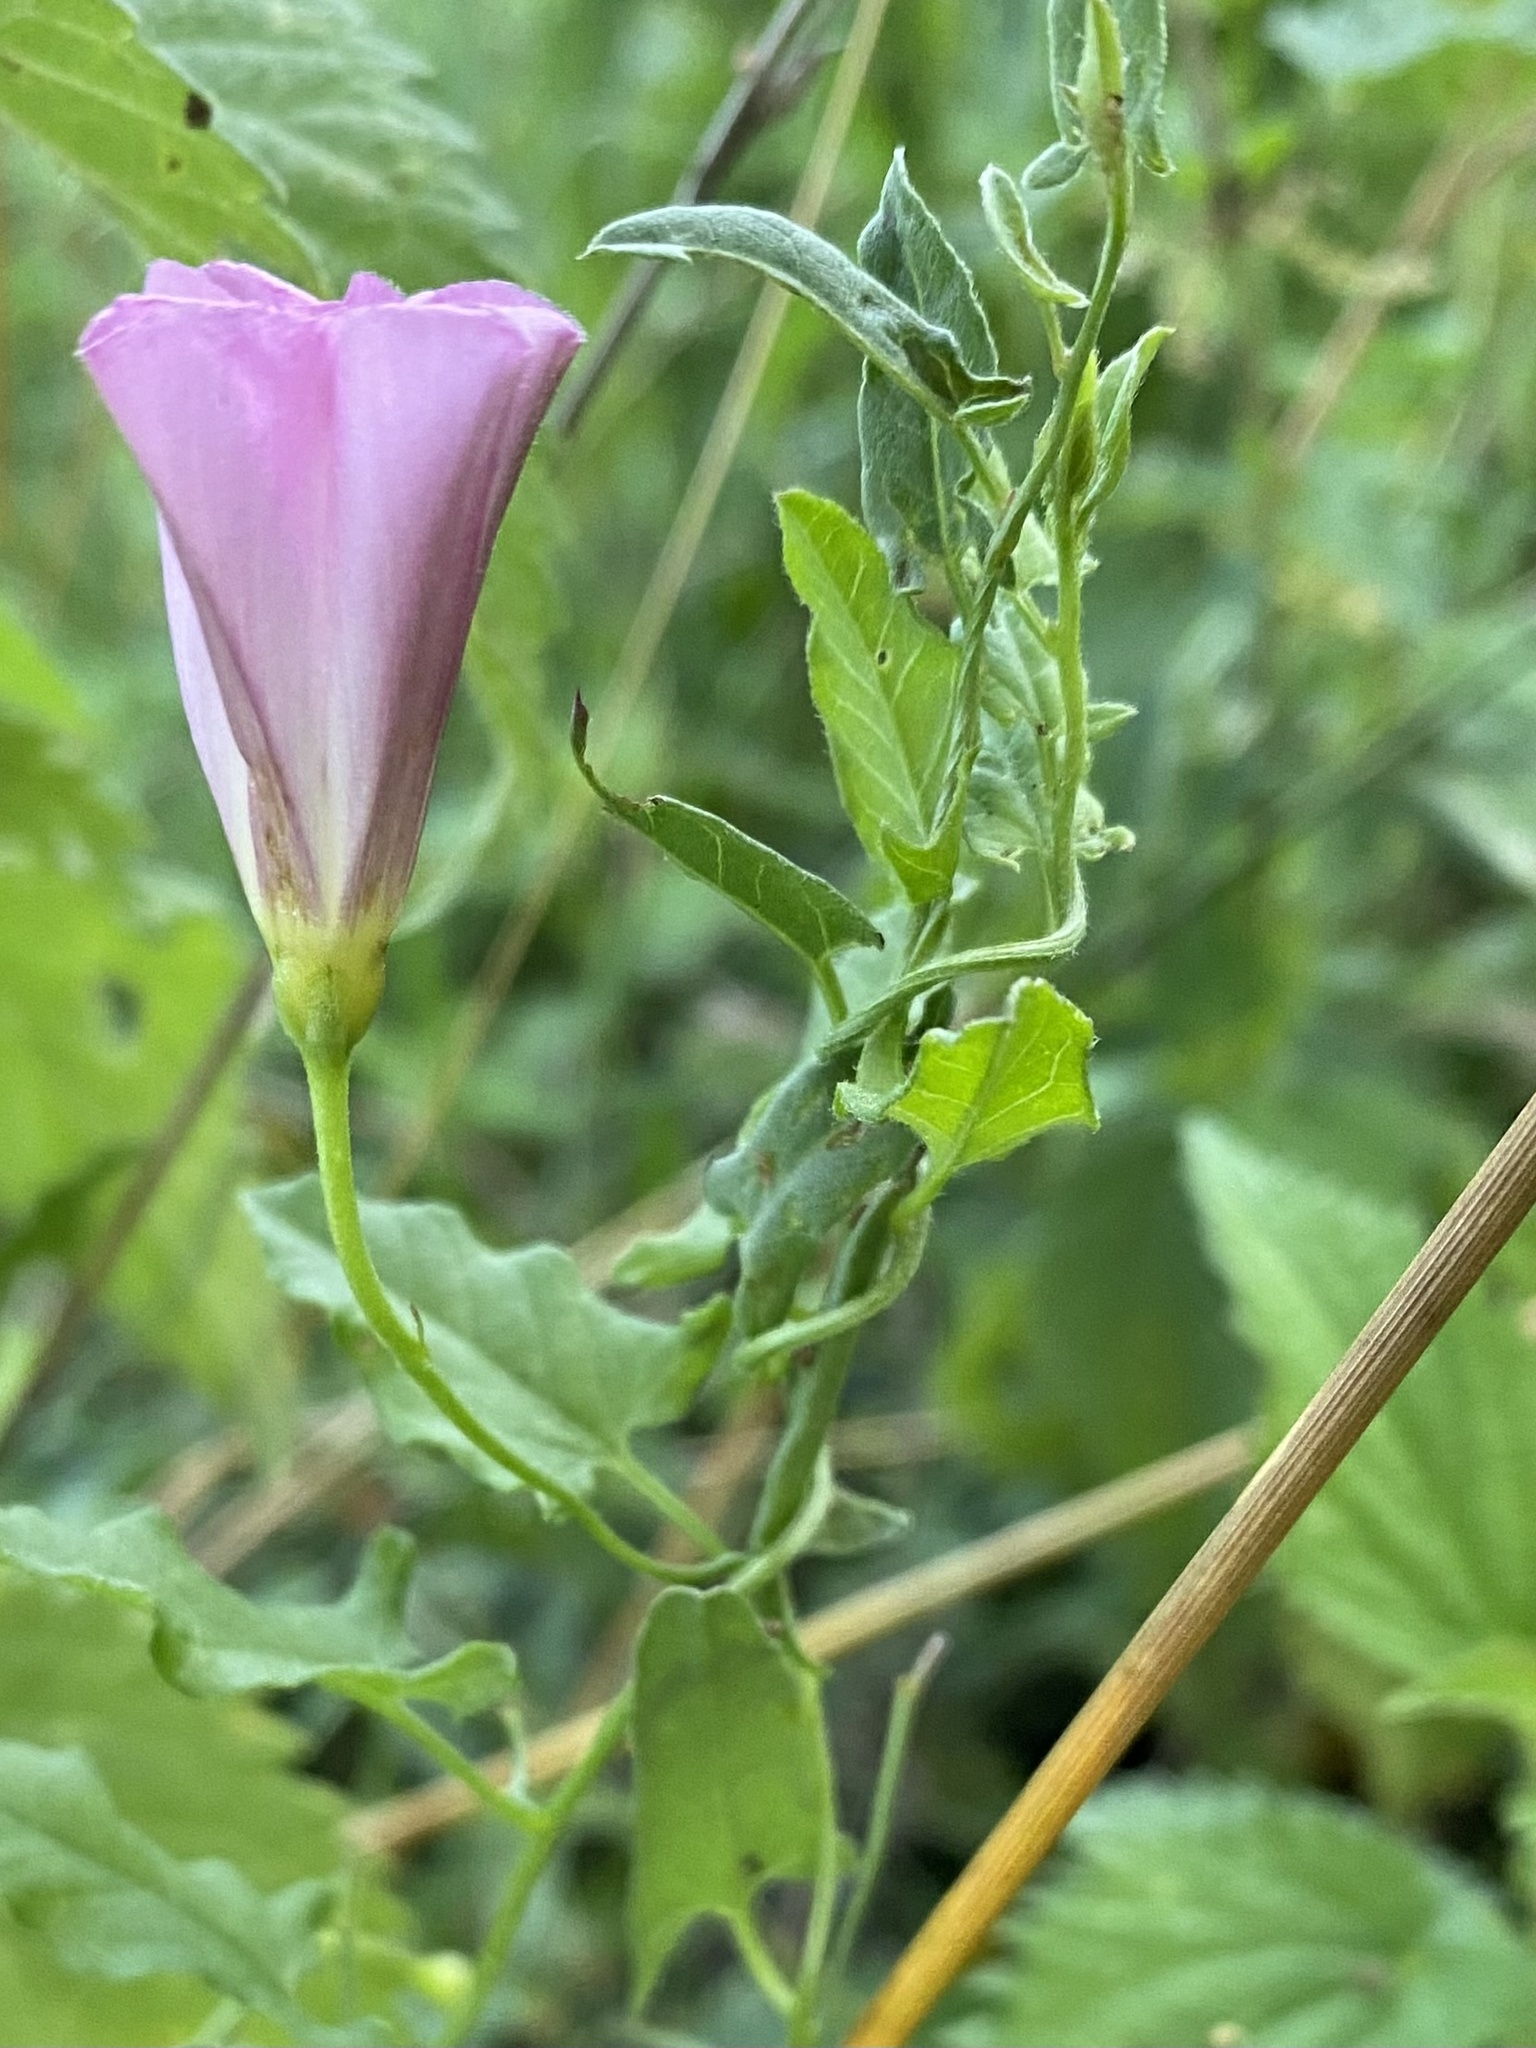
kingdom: Plantae
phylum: Tracheophyta
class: Magnoliopsida
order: Solanales
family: Convolvulaceae
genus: Convolvulus
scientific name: Convolvulus arvensis
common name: Field bindweed
